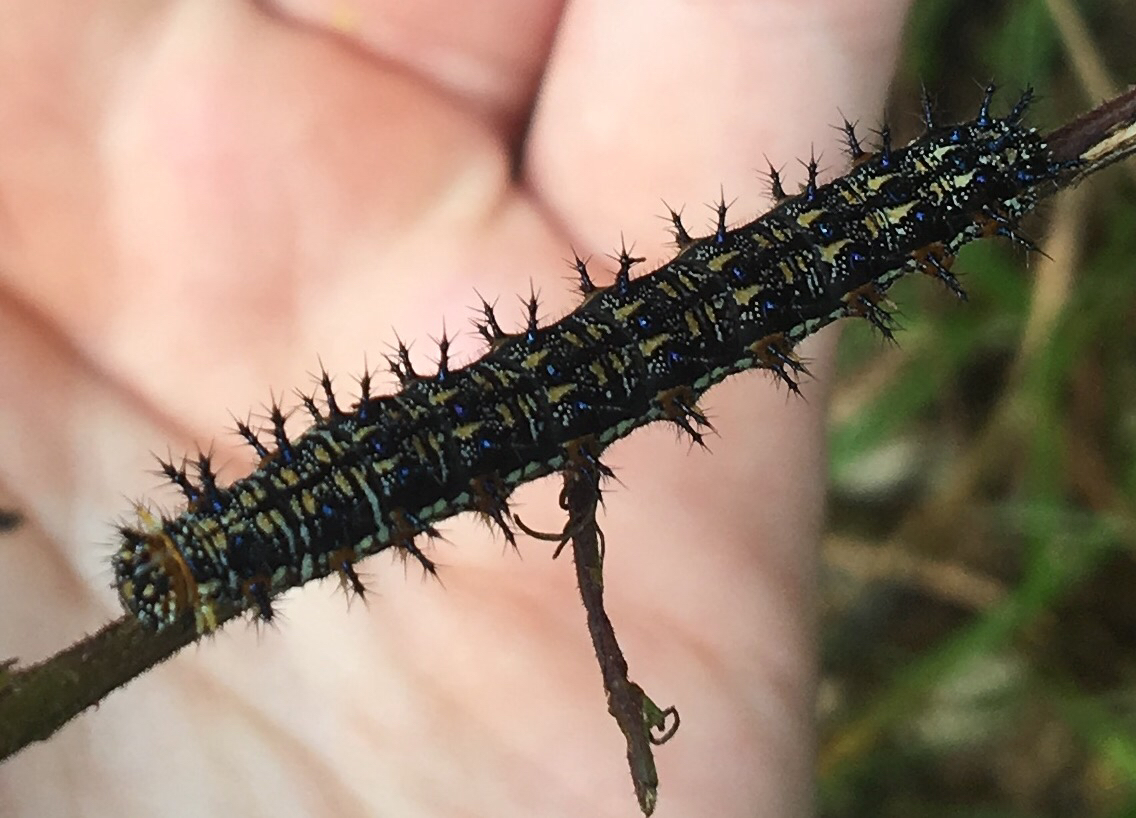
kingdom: Animalia
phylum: Arthropoda
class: Insecta
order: Lepidoptera
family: Nymphalidae
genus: Junonia
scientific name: Junonia coenia
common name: Common buckeye
